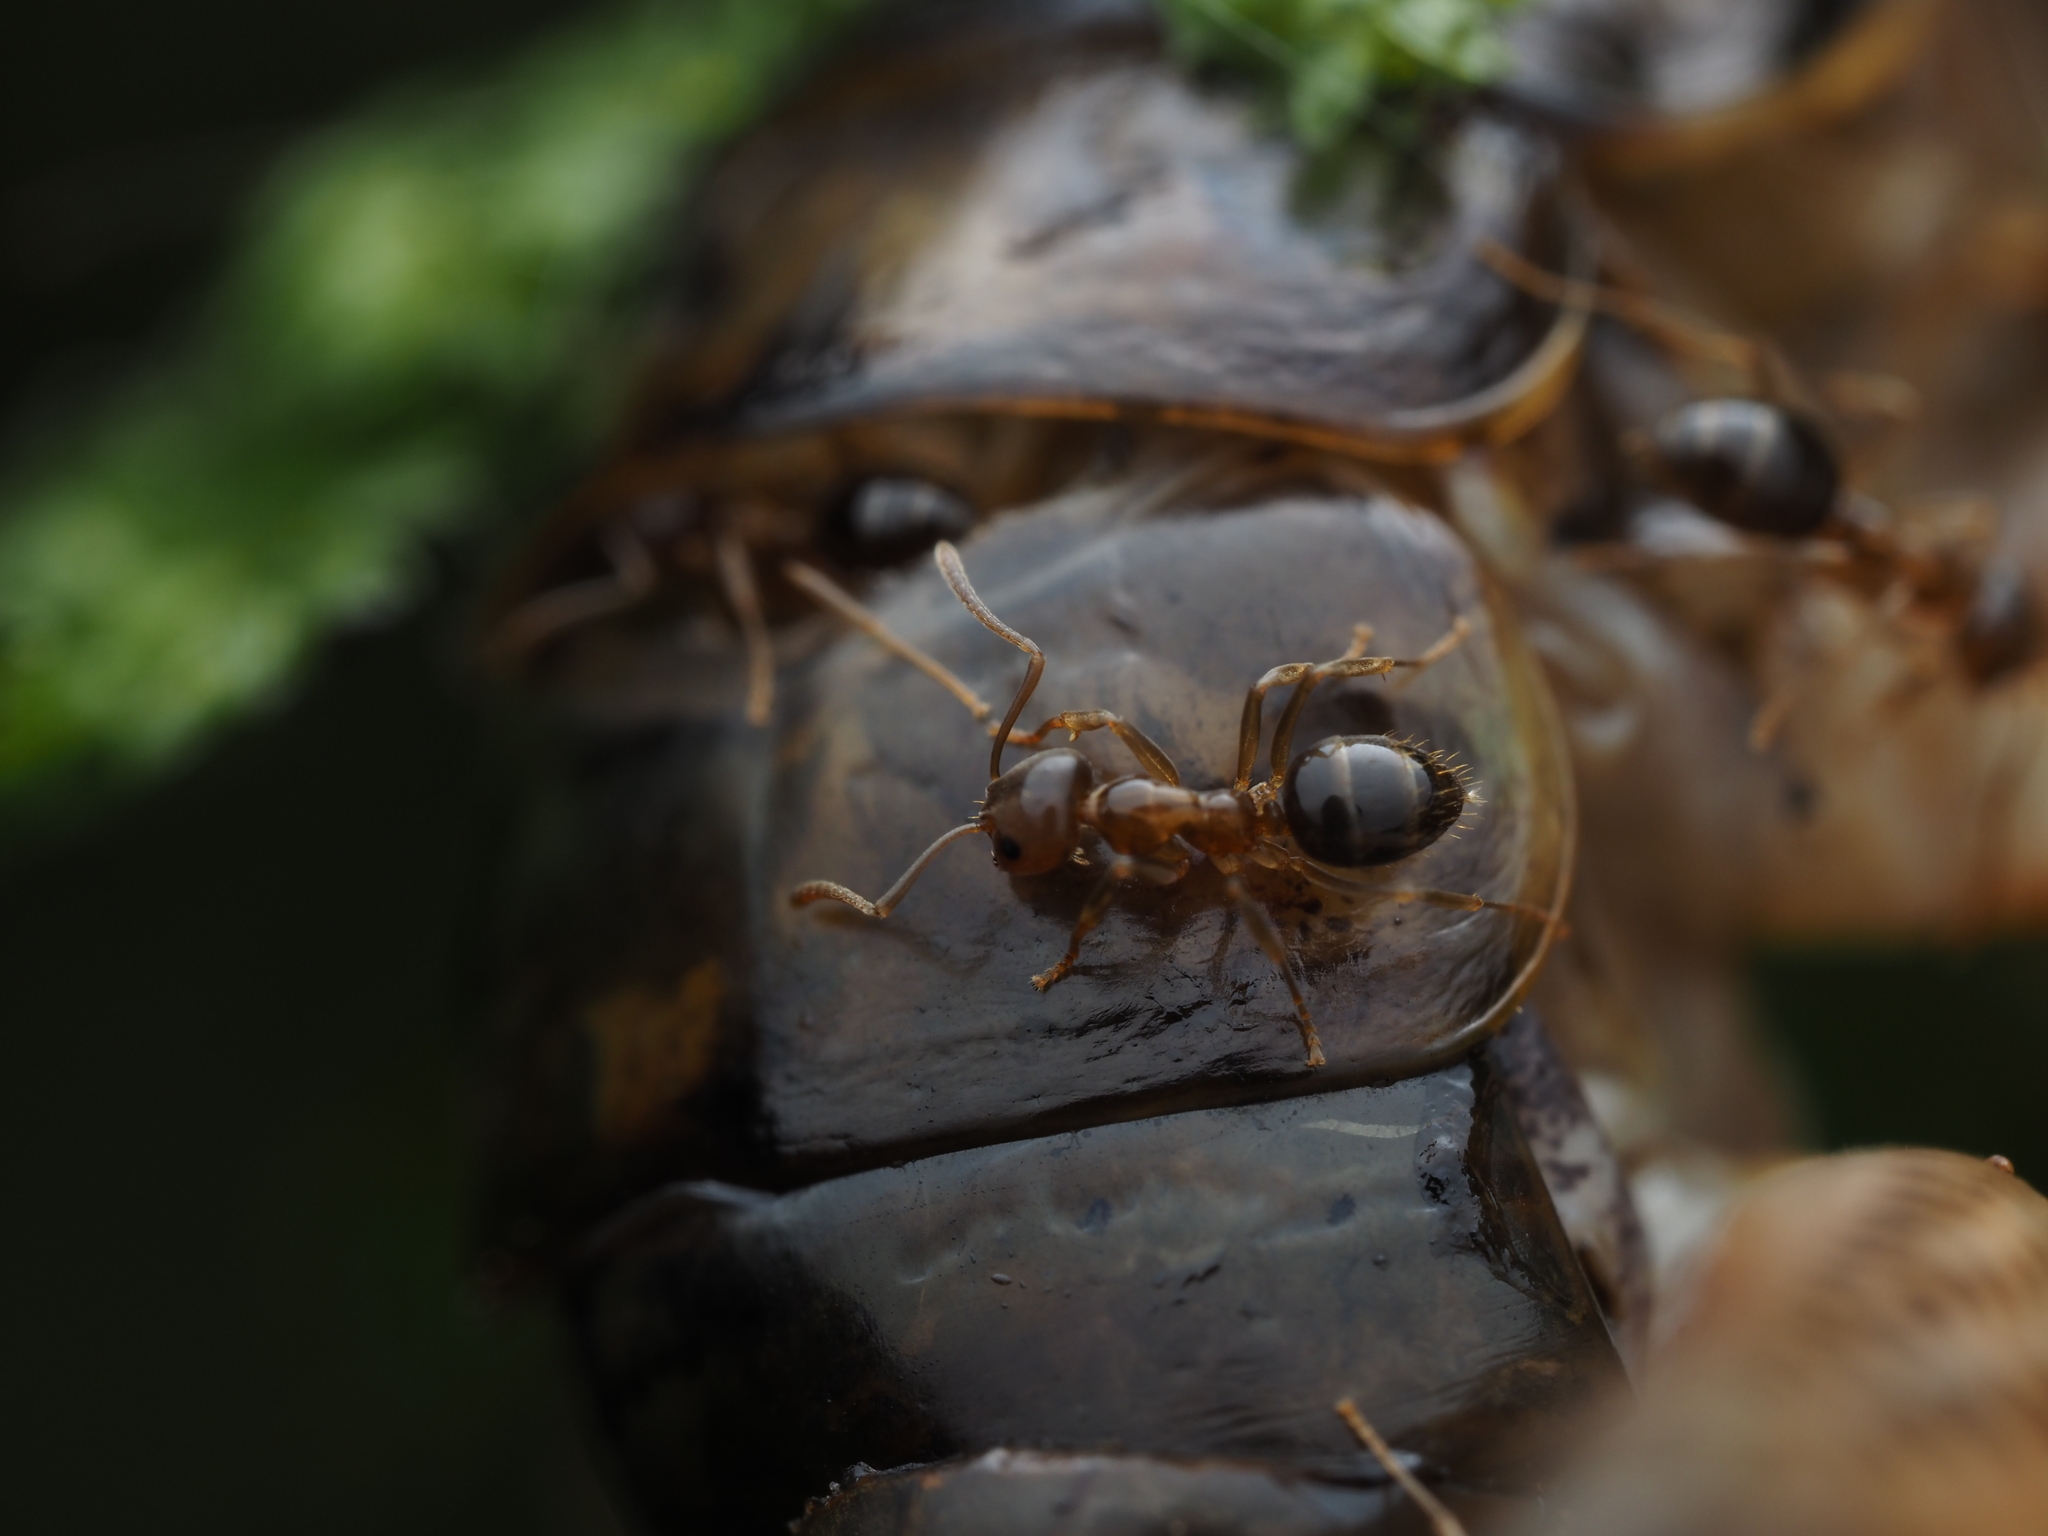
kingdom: Animalia
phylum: Arthropoda
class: Insecta
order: Hymenoptera
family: Formicidae
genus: Prolasius
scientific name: Prolasius advenus
